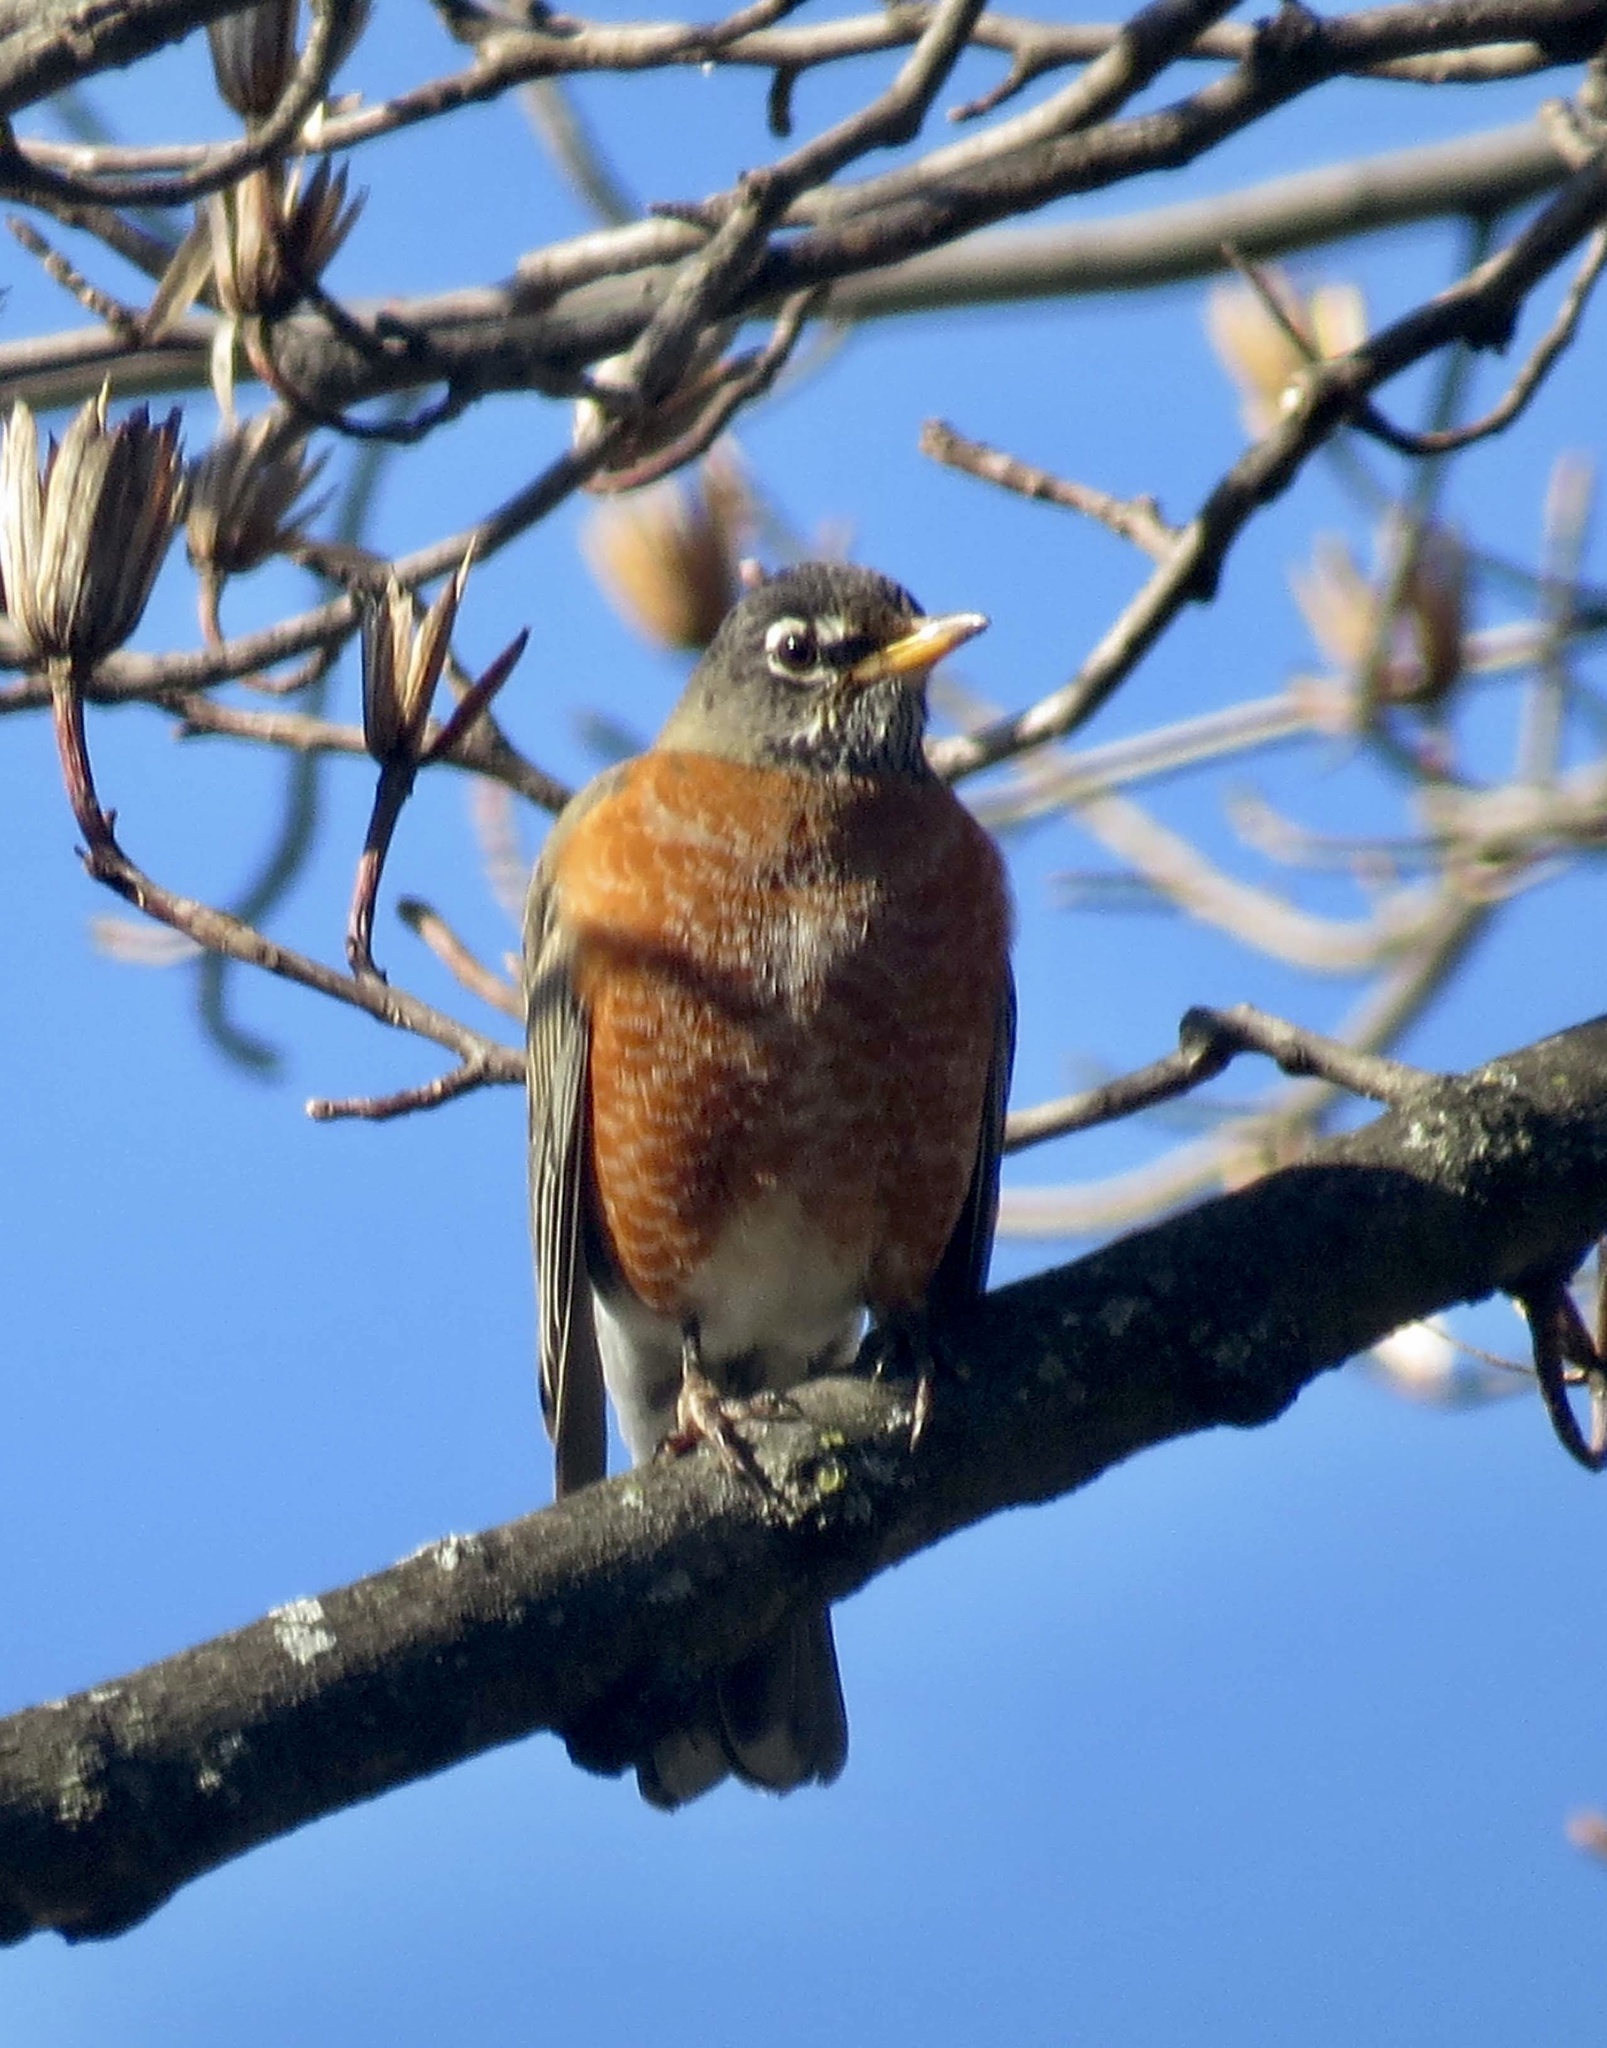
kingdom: Animalia
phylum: Chordata
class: Aves
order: Passeriformes
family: Turdidae
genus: Turdus
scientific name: Turdus migratorius
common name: American robin
